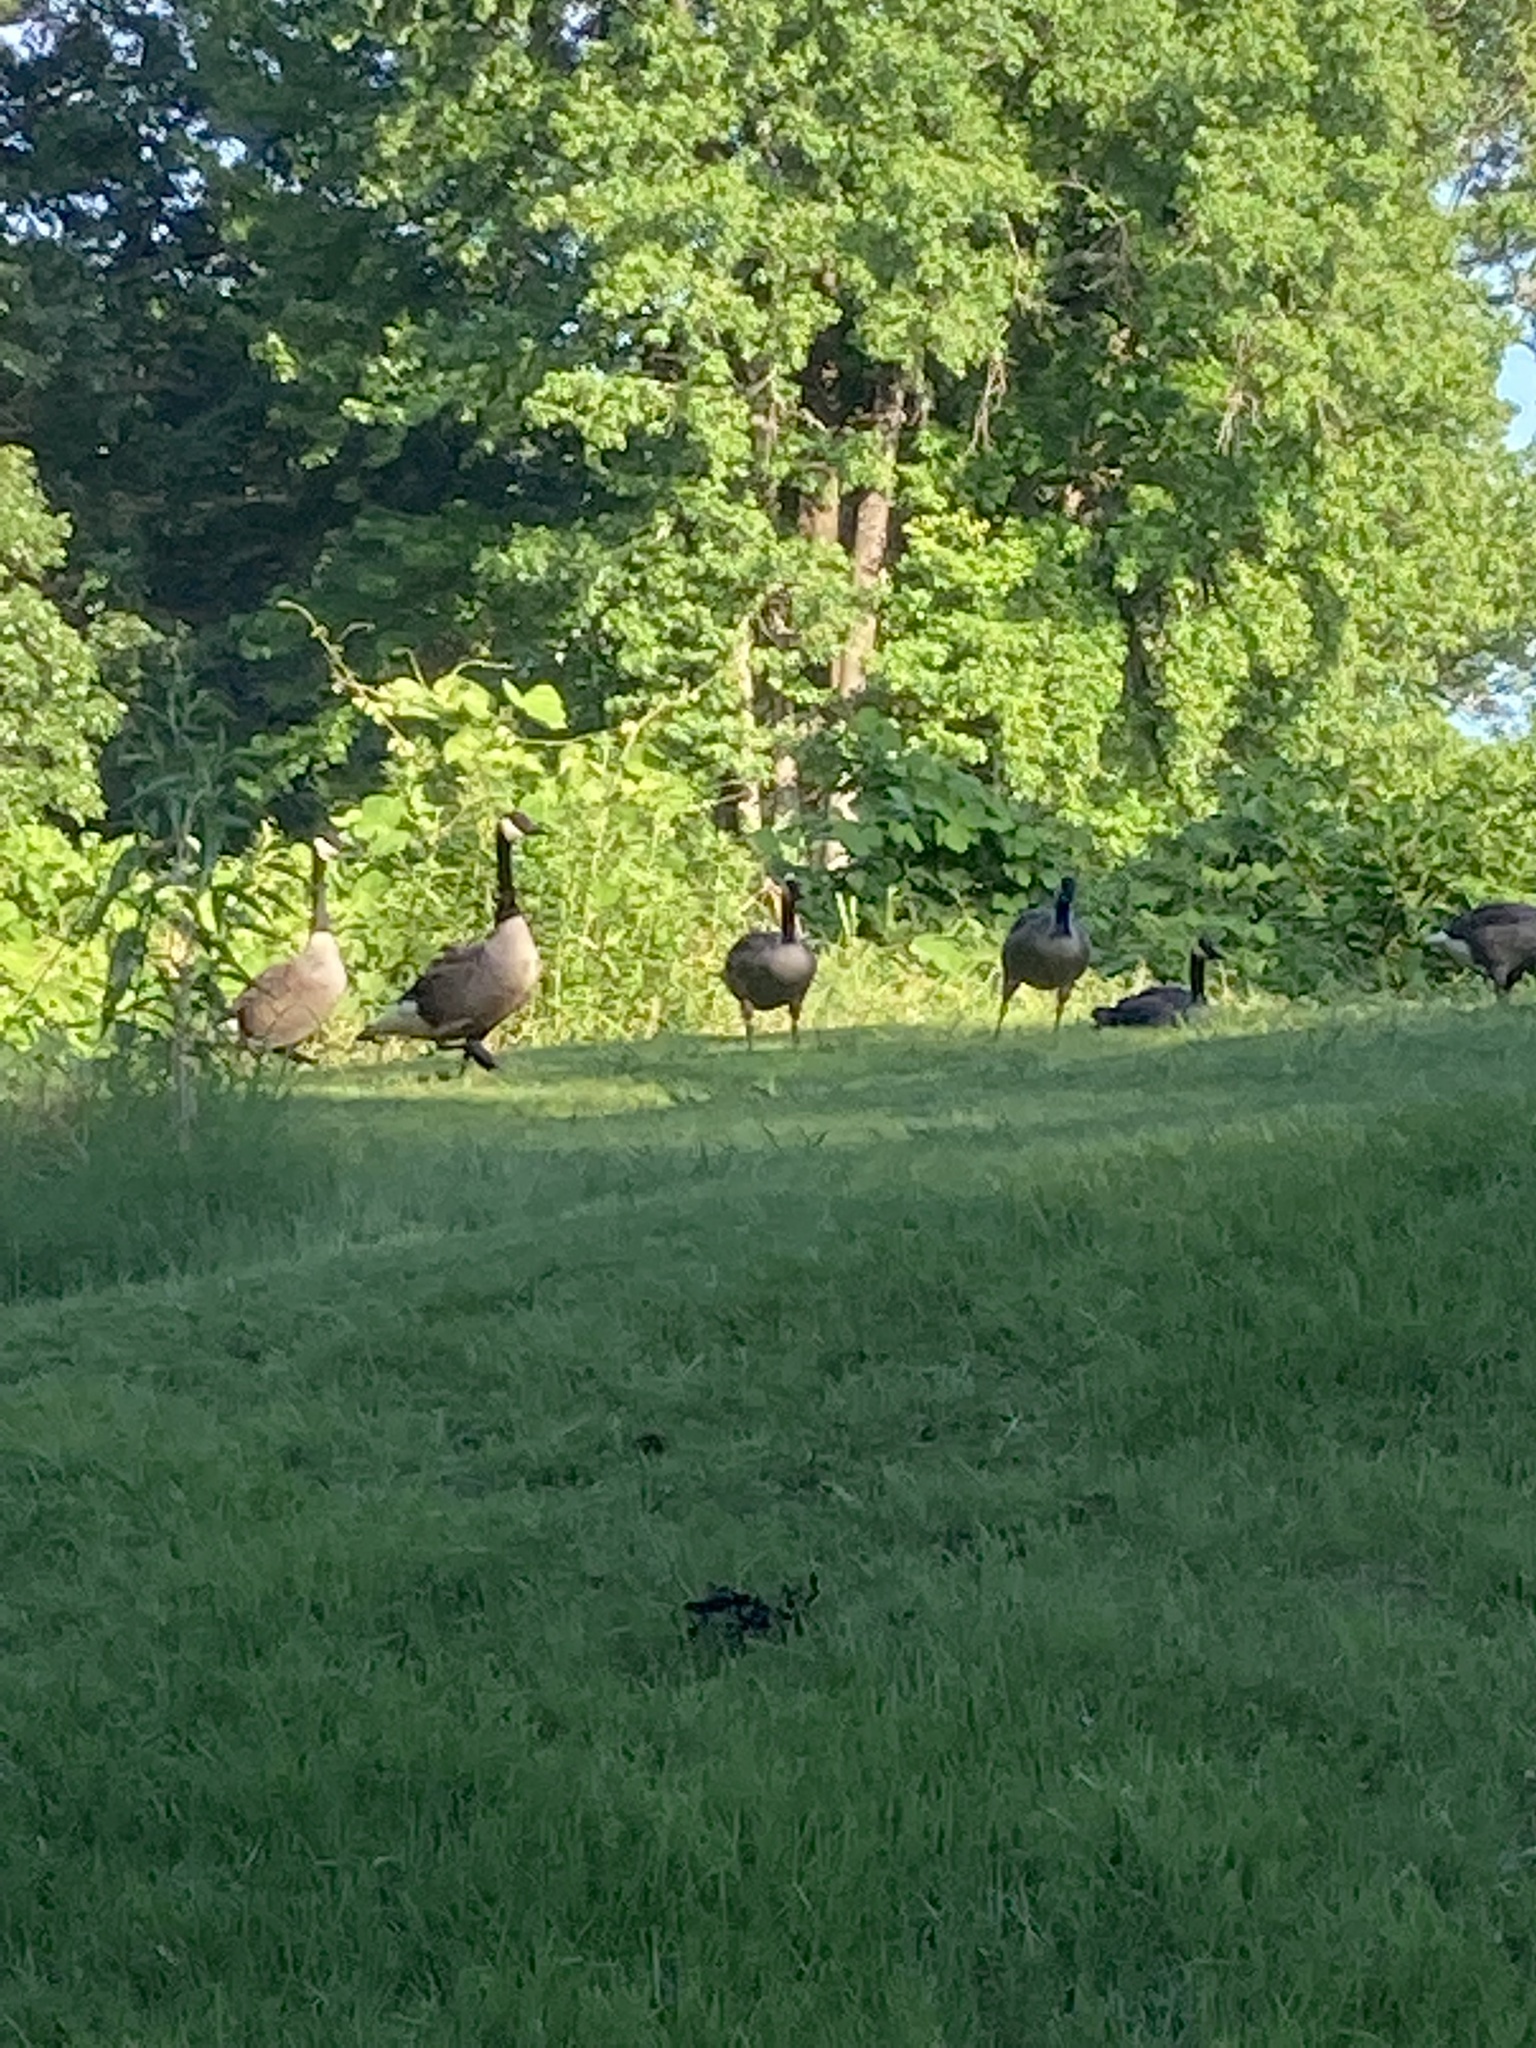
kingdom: Animalia
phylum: Chordata
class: Aves
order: Anseriformes
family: Anatidae
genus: Branta
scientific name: Branta canadensis
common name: Canada goose
